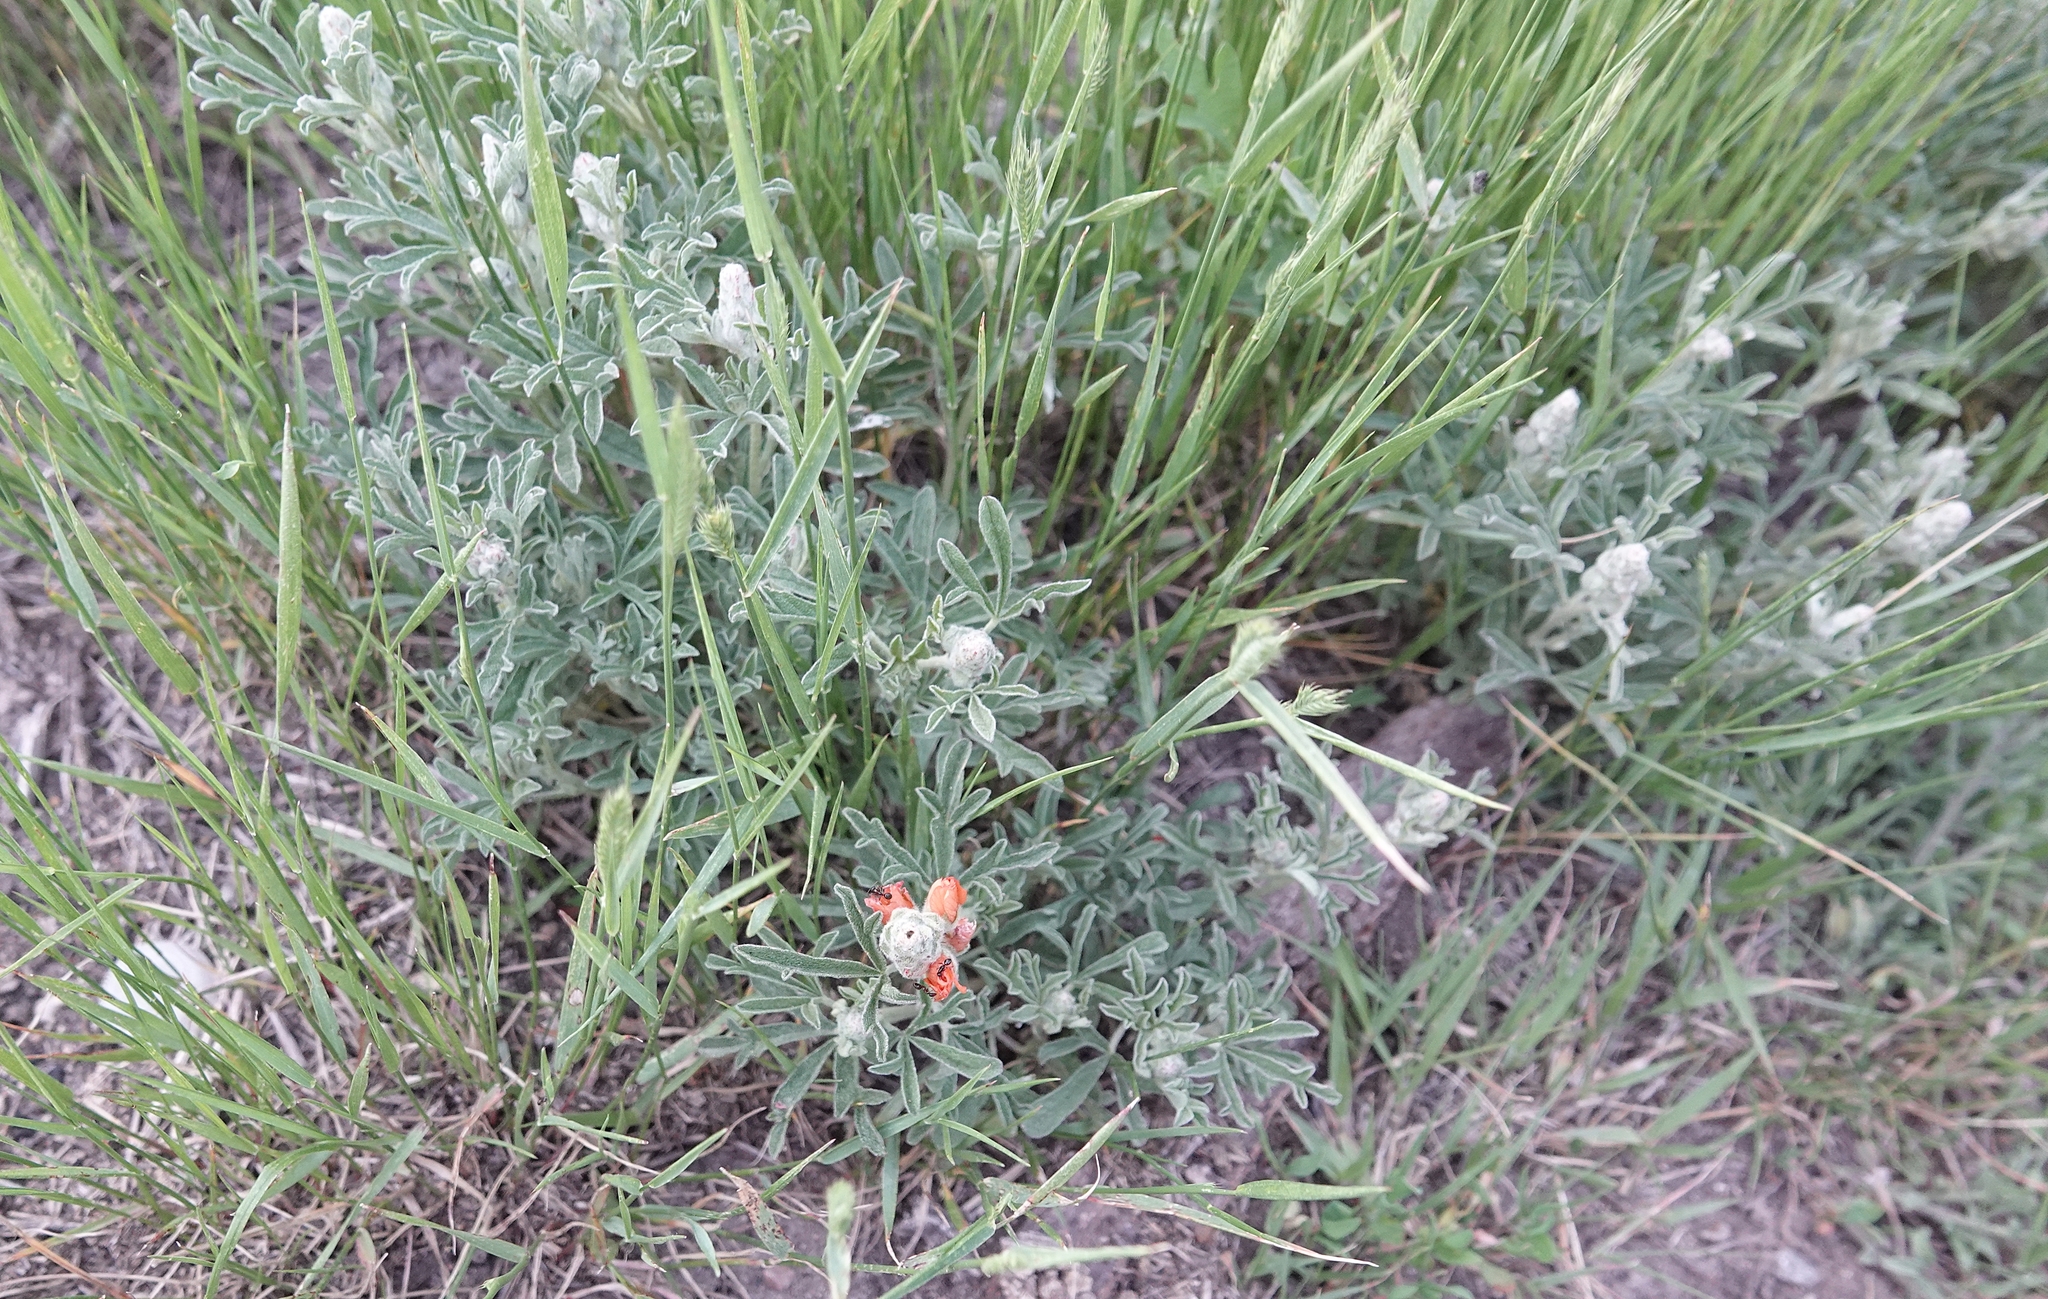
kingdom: Plantae
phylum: Tracheophyta
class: Magnoliopsida
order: Malvales
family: Malvaceae
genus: Sphaeralcea
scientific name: Sphaeralcea coccinea
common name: Moss-rose
